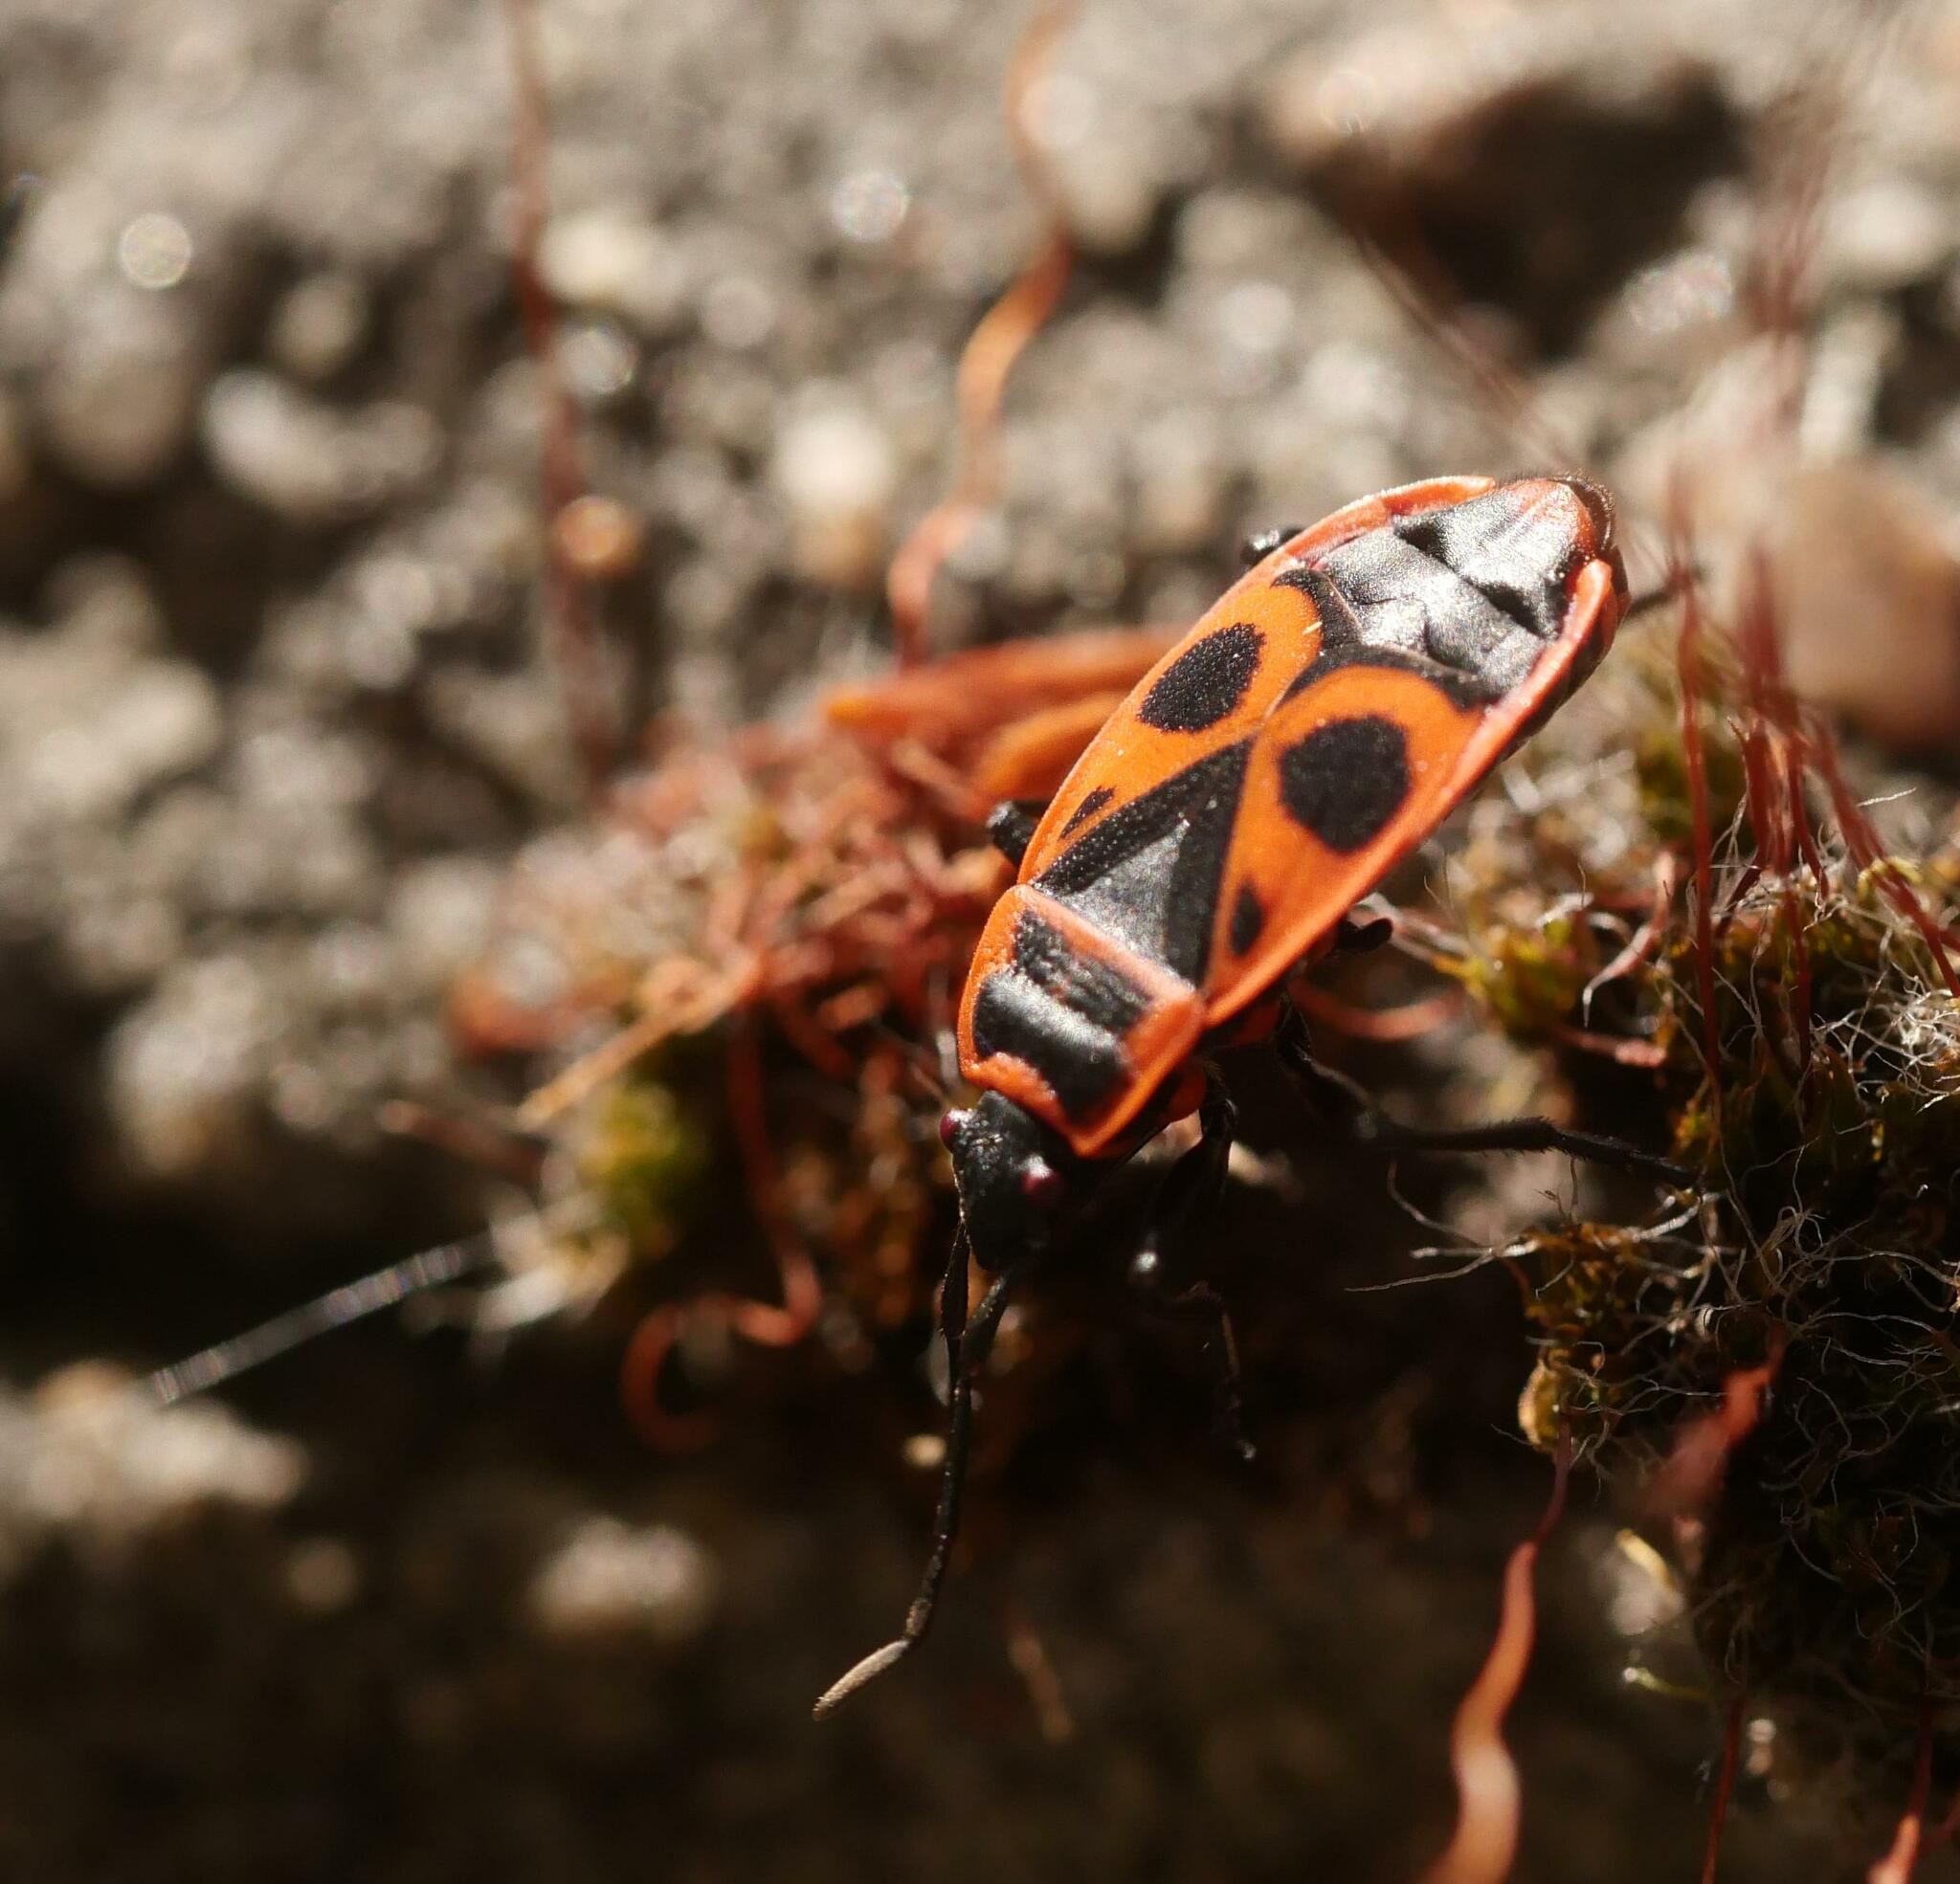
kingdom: Animalia
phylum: Arthropoda
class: Insecta
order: Hemiptera
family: Pyrrhocoridae
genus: Pyrrhocoris
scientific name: Pyrrhocoris apterus
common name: Firebug
